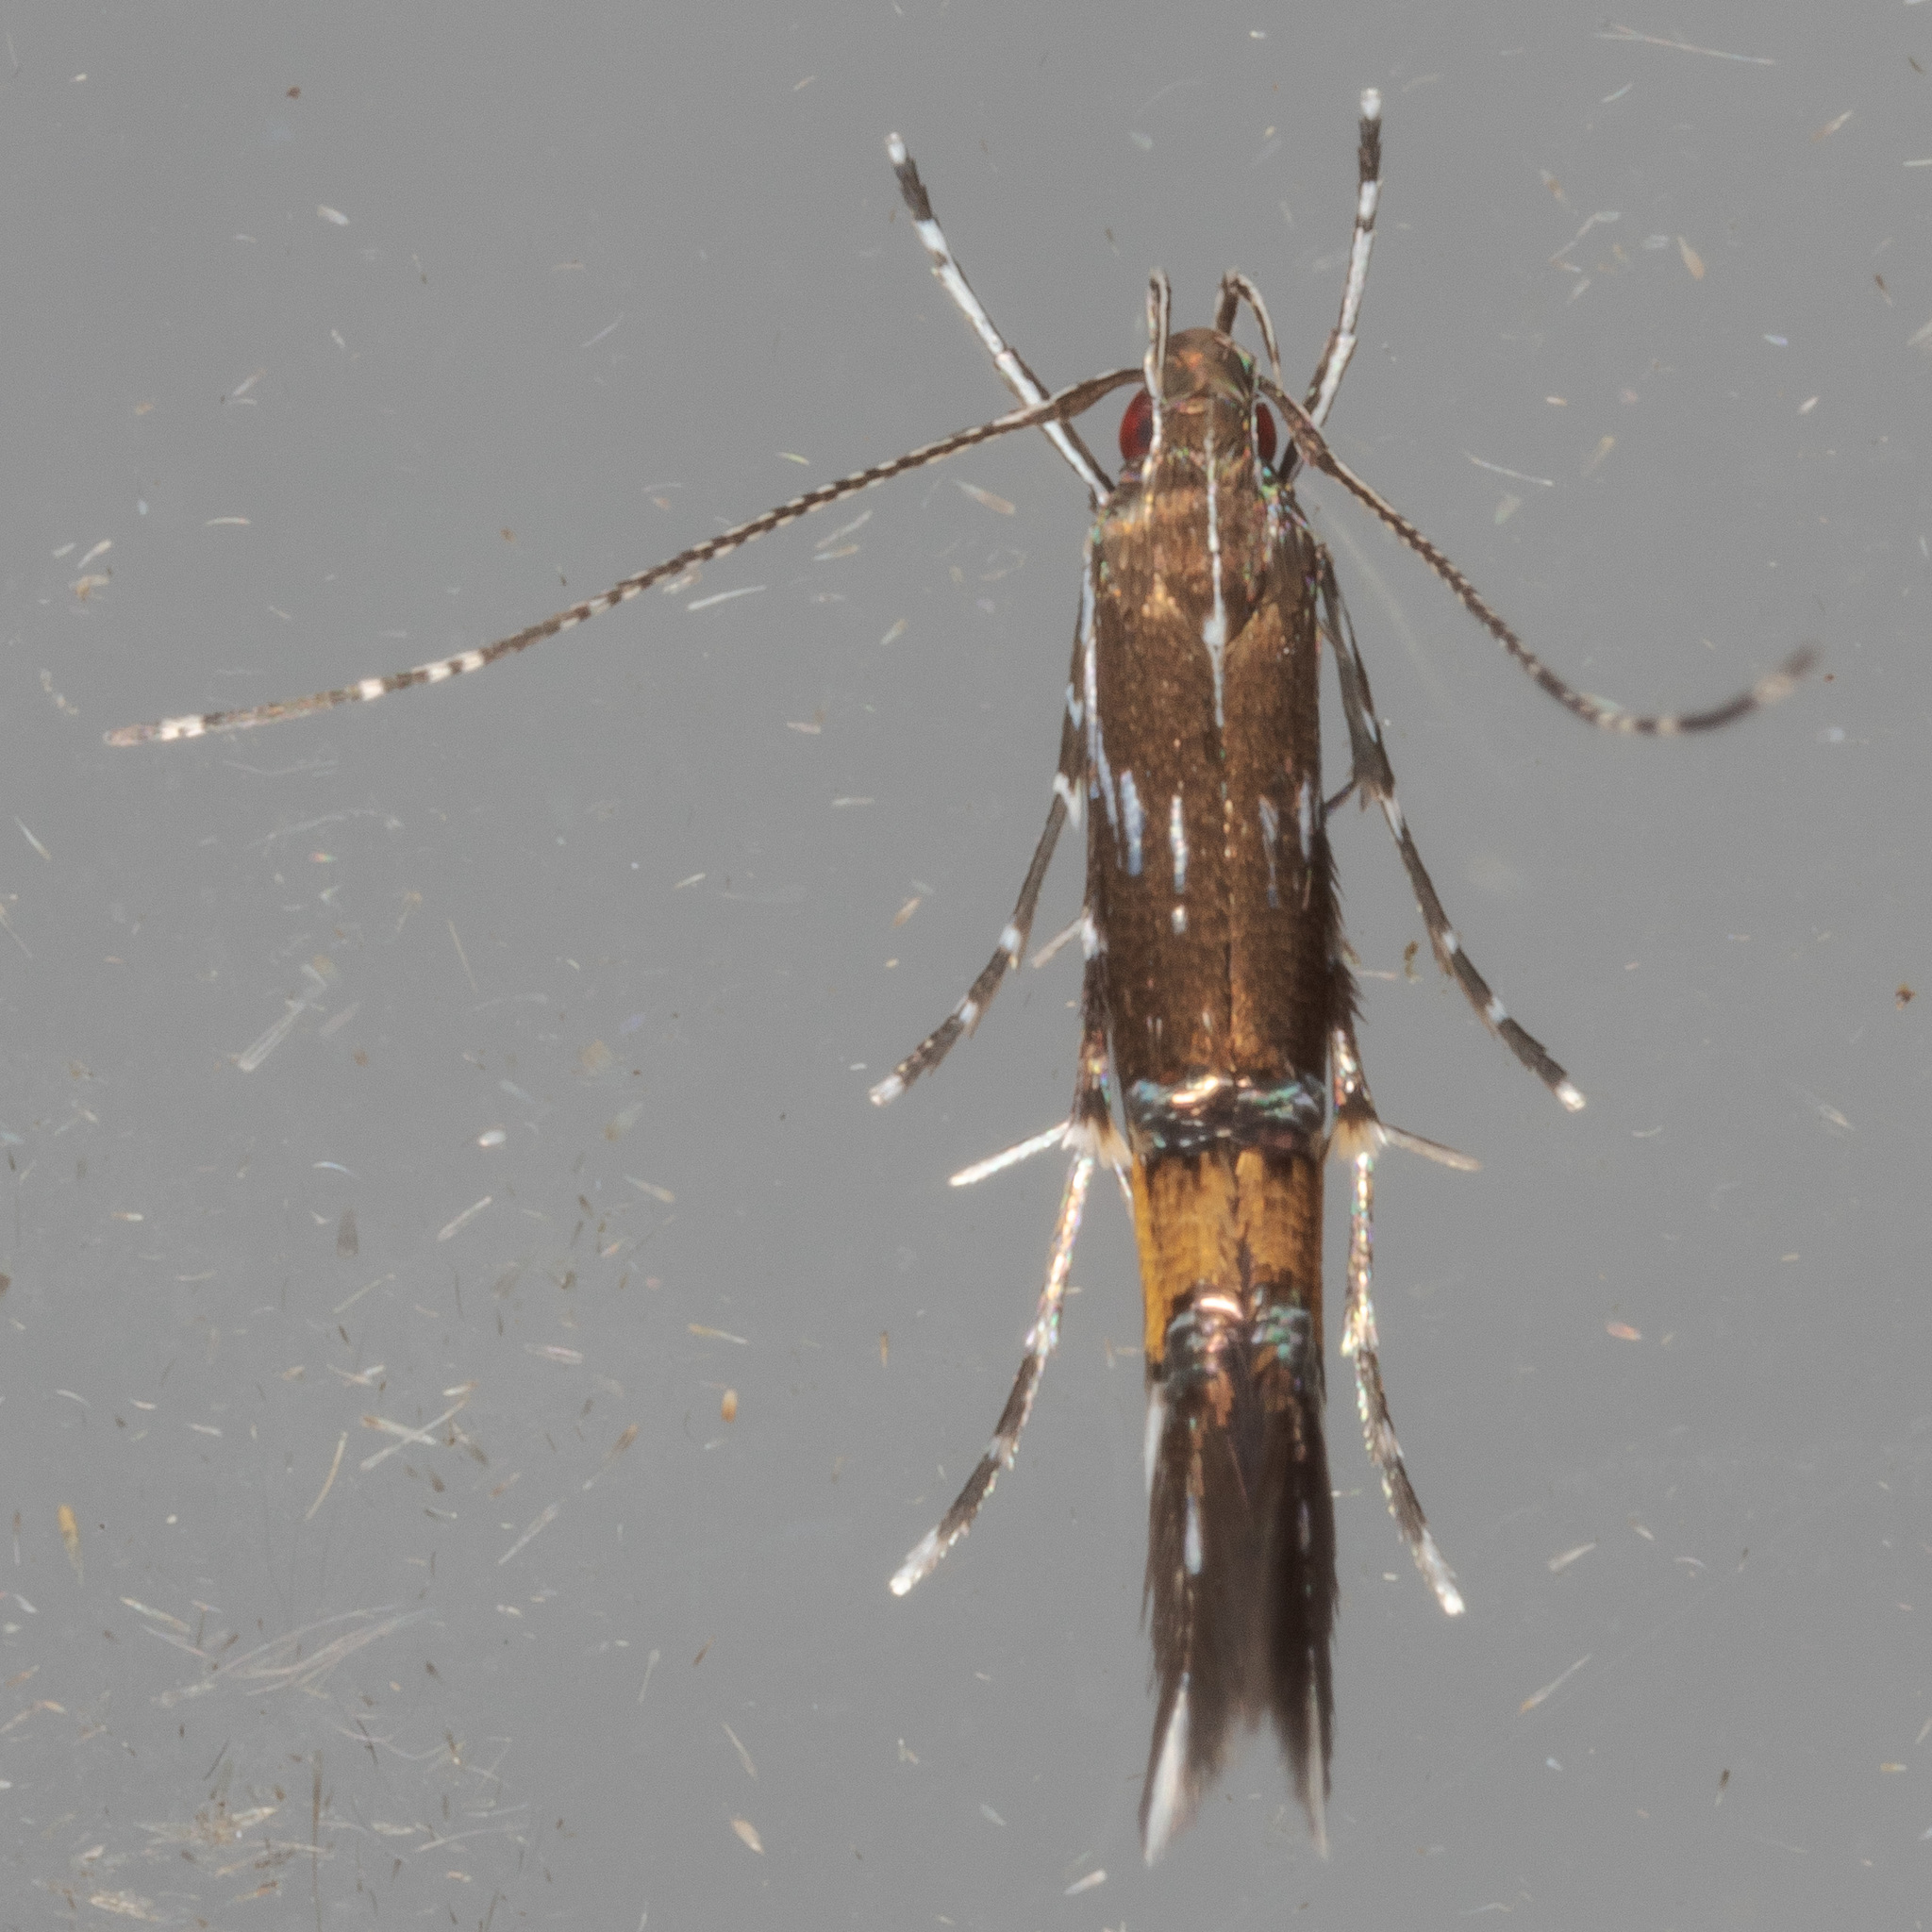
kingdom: Animalia
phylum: Arthropoda
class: Insecta
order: Lepidoptera
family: Cosmopterigidae
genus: Cosmopterix
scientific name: Cosmopterix pulchrimella
